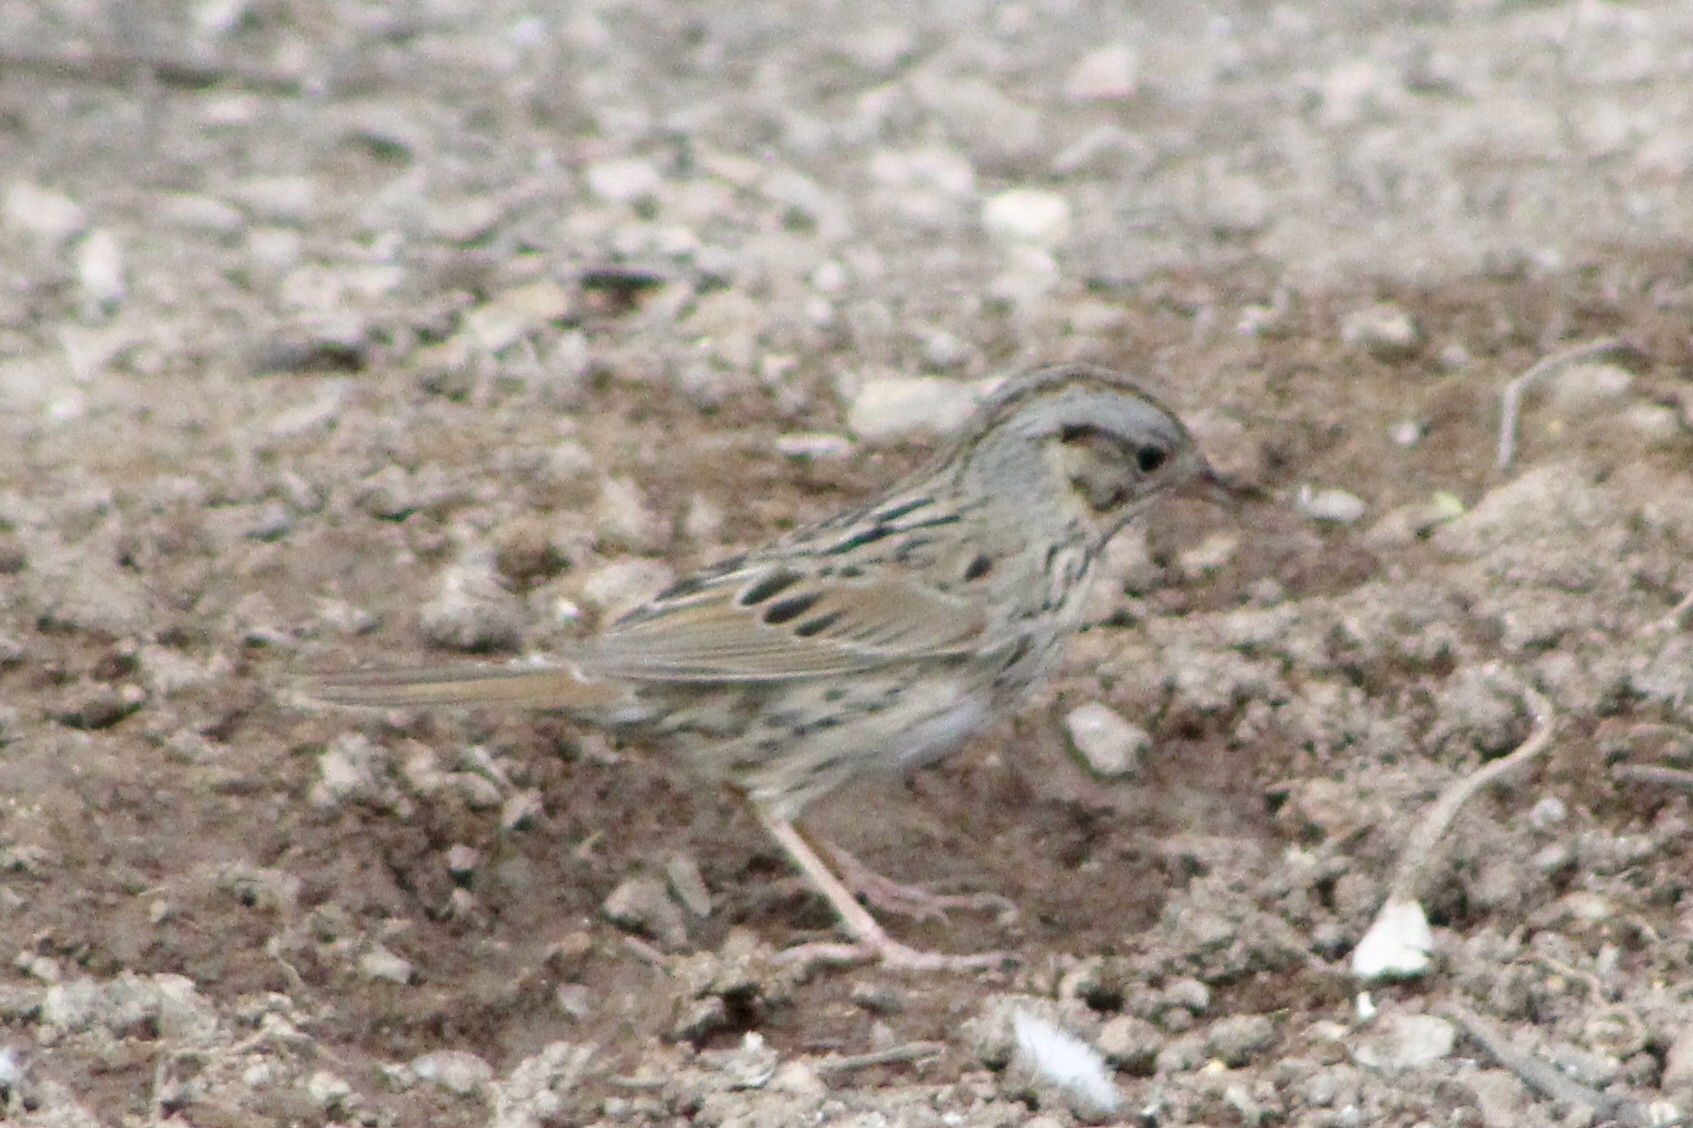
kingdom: Animalia
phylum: Chordata
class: Aves
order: Passeriformes
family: Passerellidae
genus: Melospiza
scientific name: Melospiza lincolnii
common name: Lincoln's sparrow
